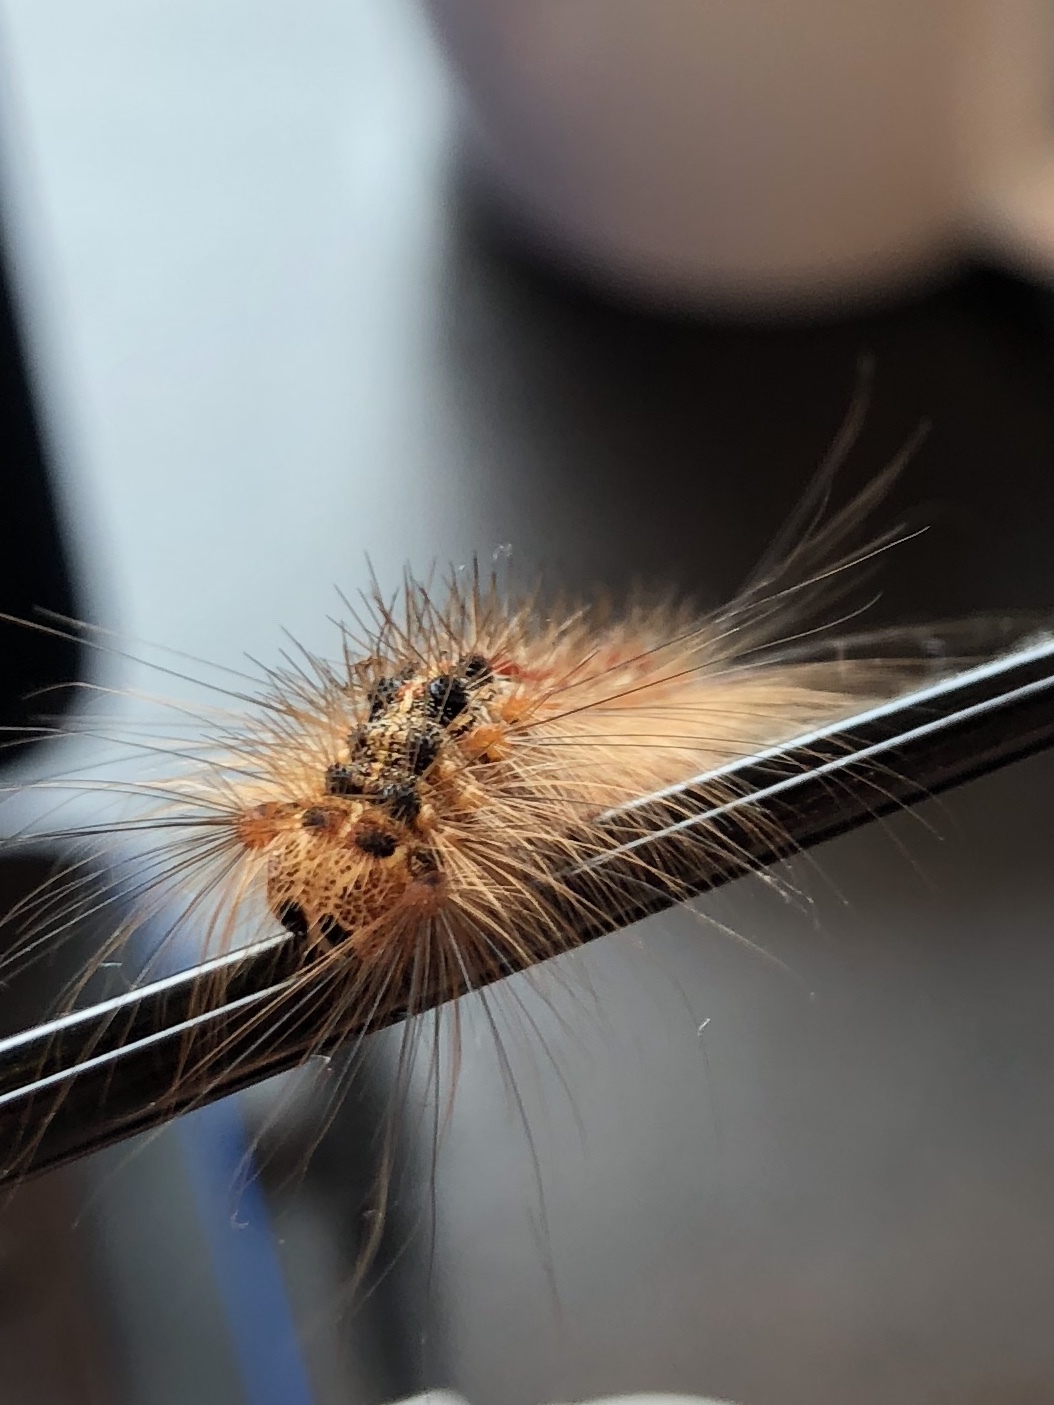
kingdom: Animalia
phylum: Arthropoda
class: Insecta
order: Lepidoptera
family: Erebidae
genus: Lymantria
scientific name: Lymantria dispar
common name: Gypsy moth
